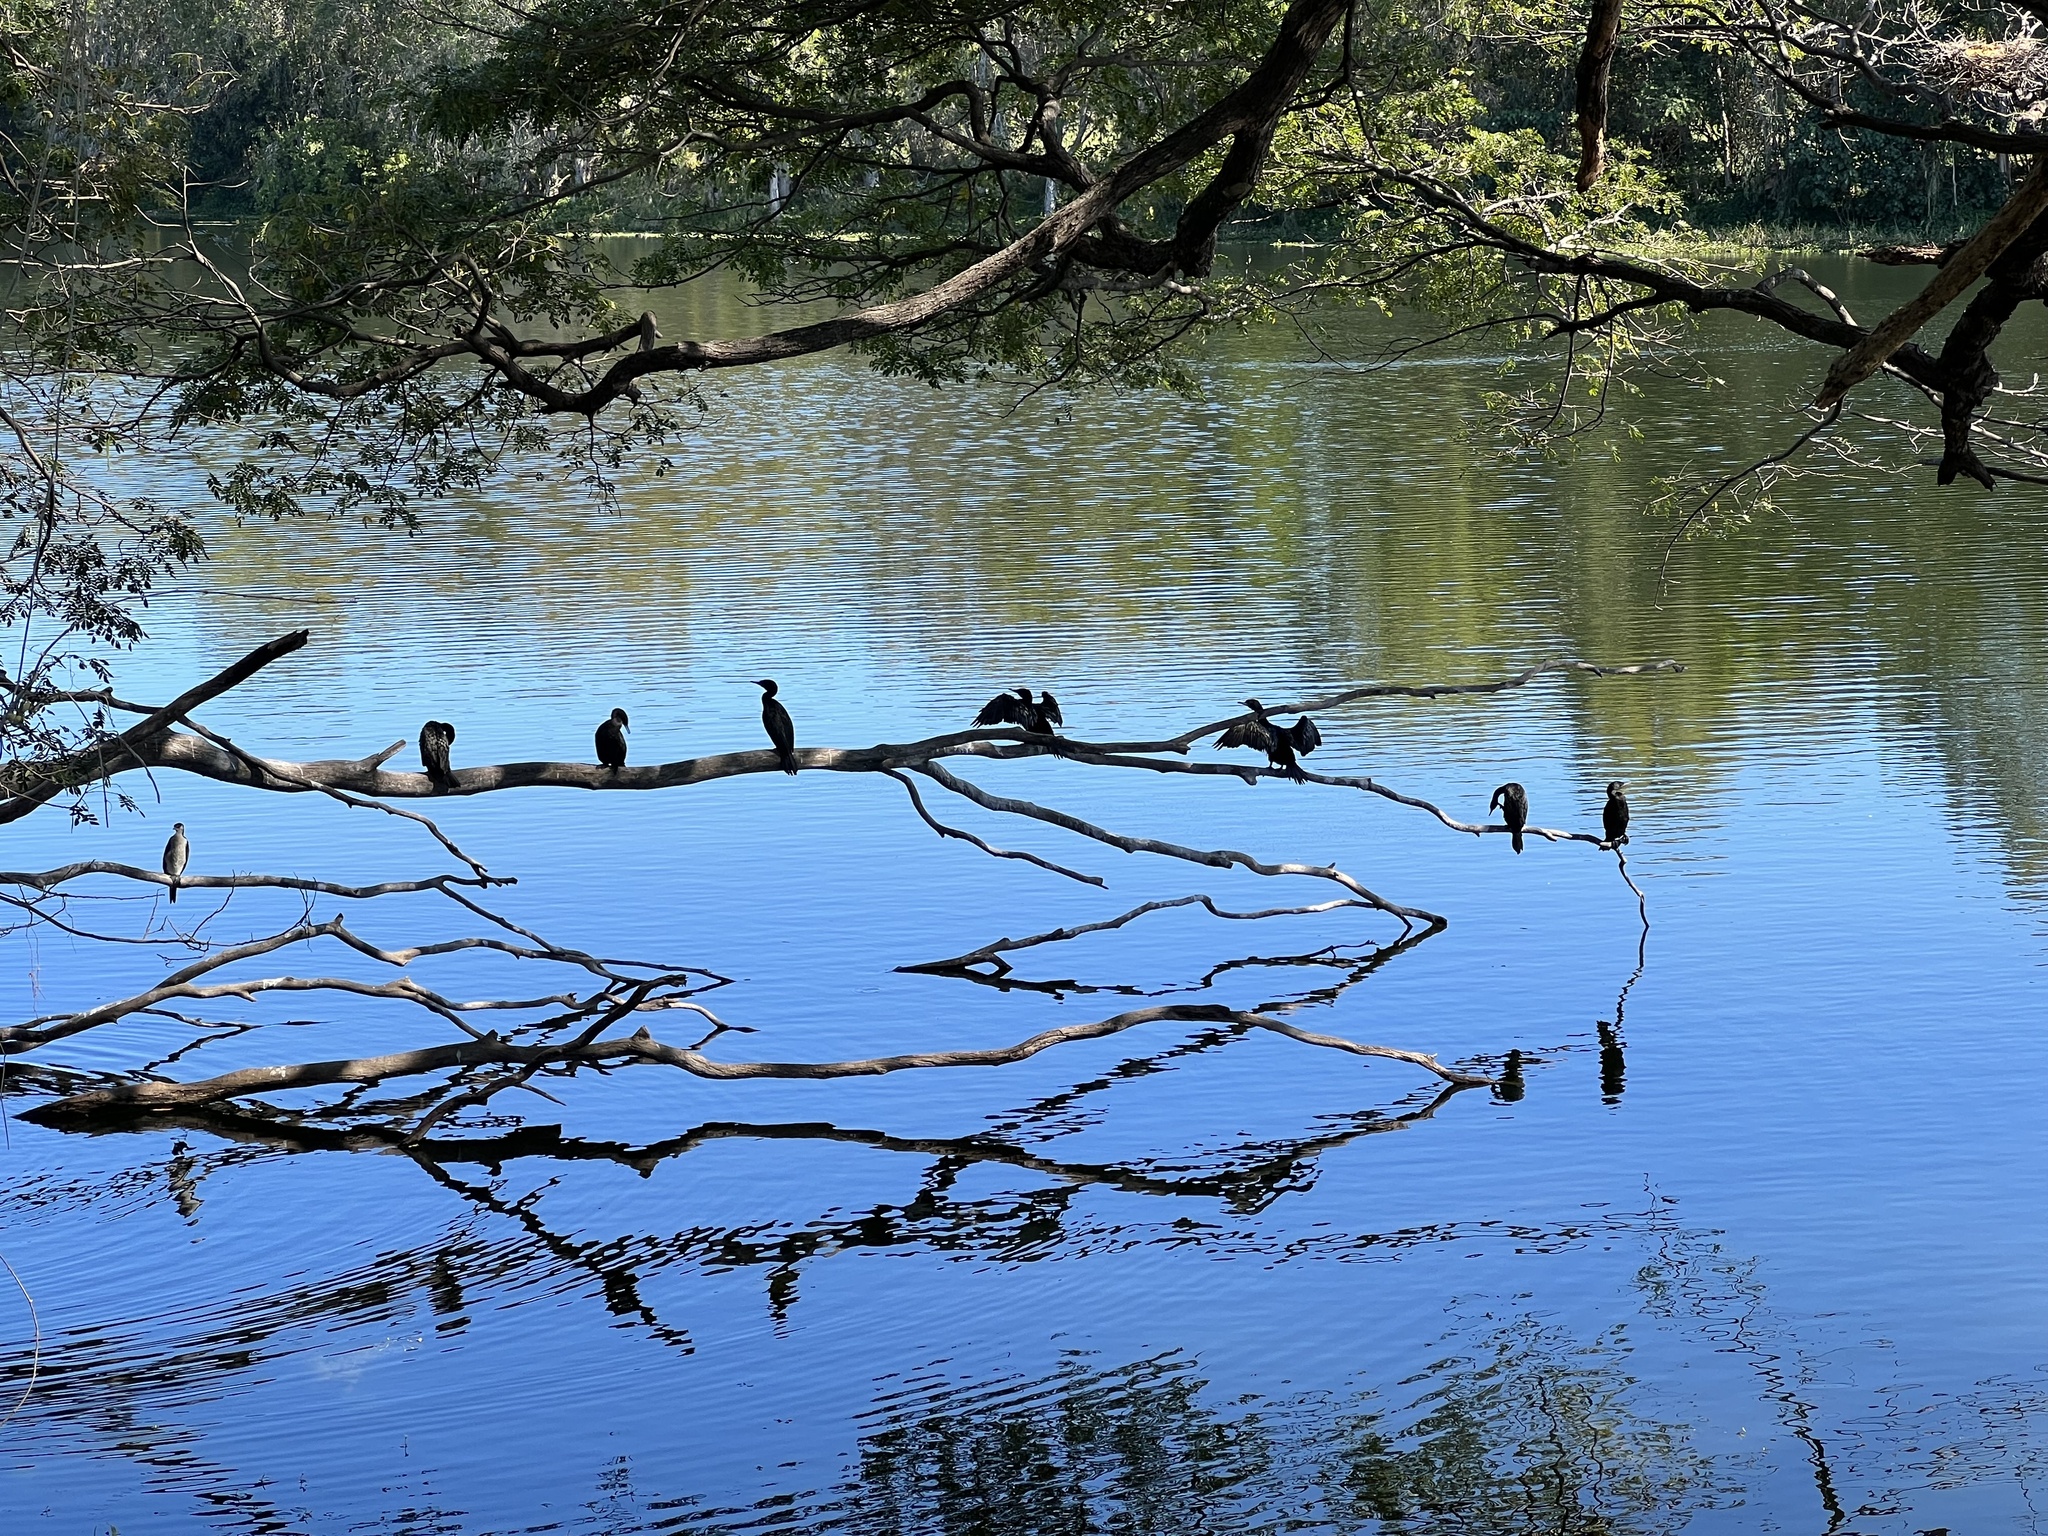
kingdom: Animalia
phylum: Chordata
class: Aves
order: Suliformes
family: Phalacrocoracidae
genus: Phalacrocorax
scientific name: Phalacrocorax sulcirostris
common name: Little black cormorant
